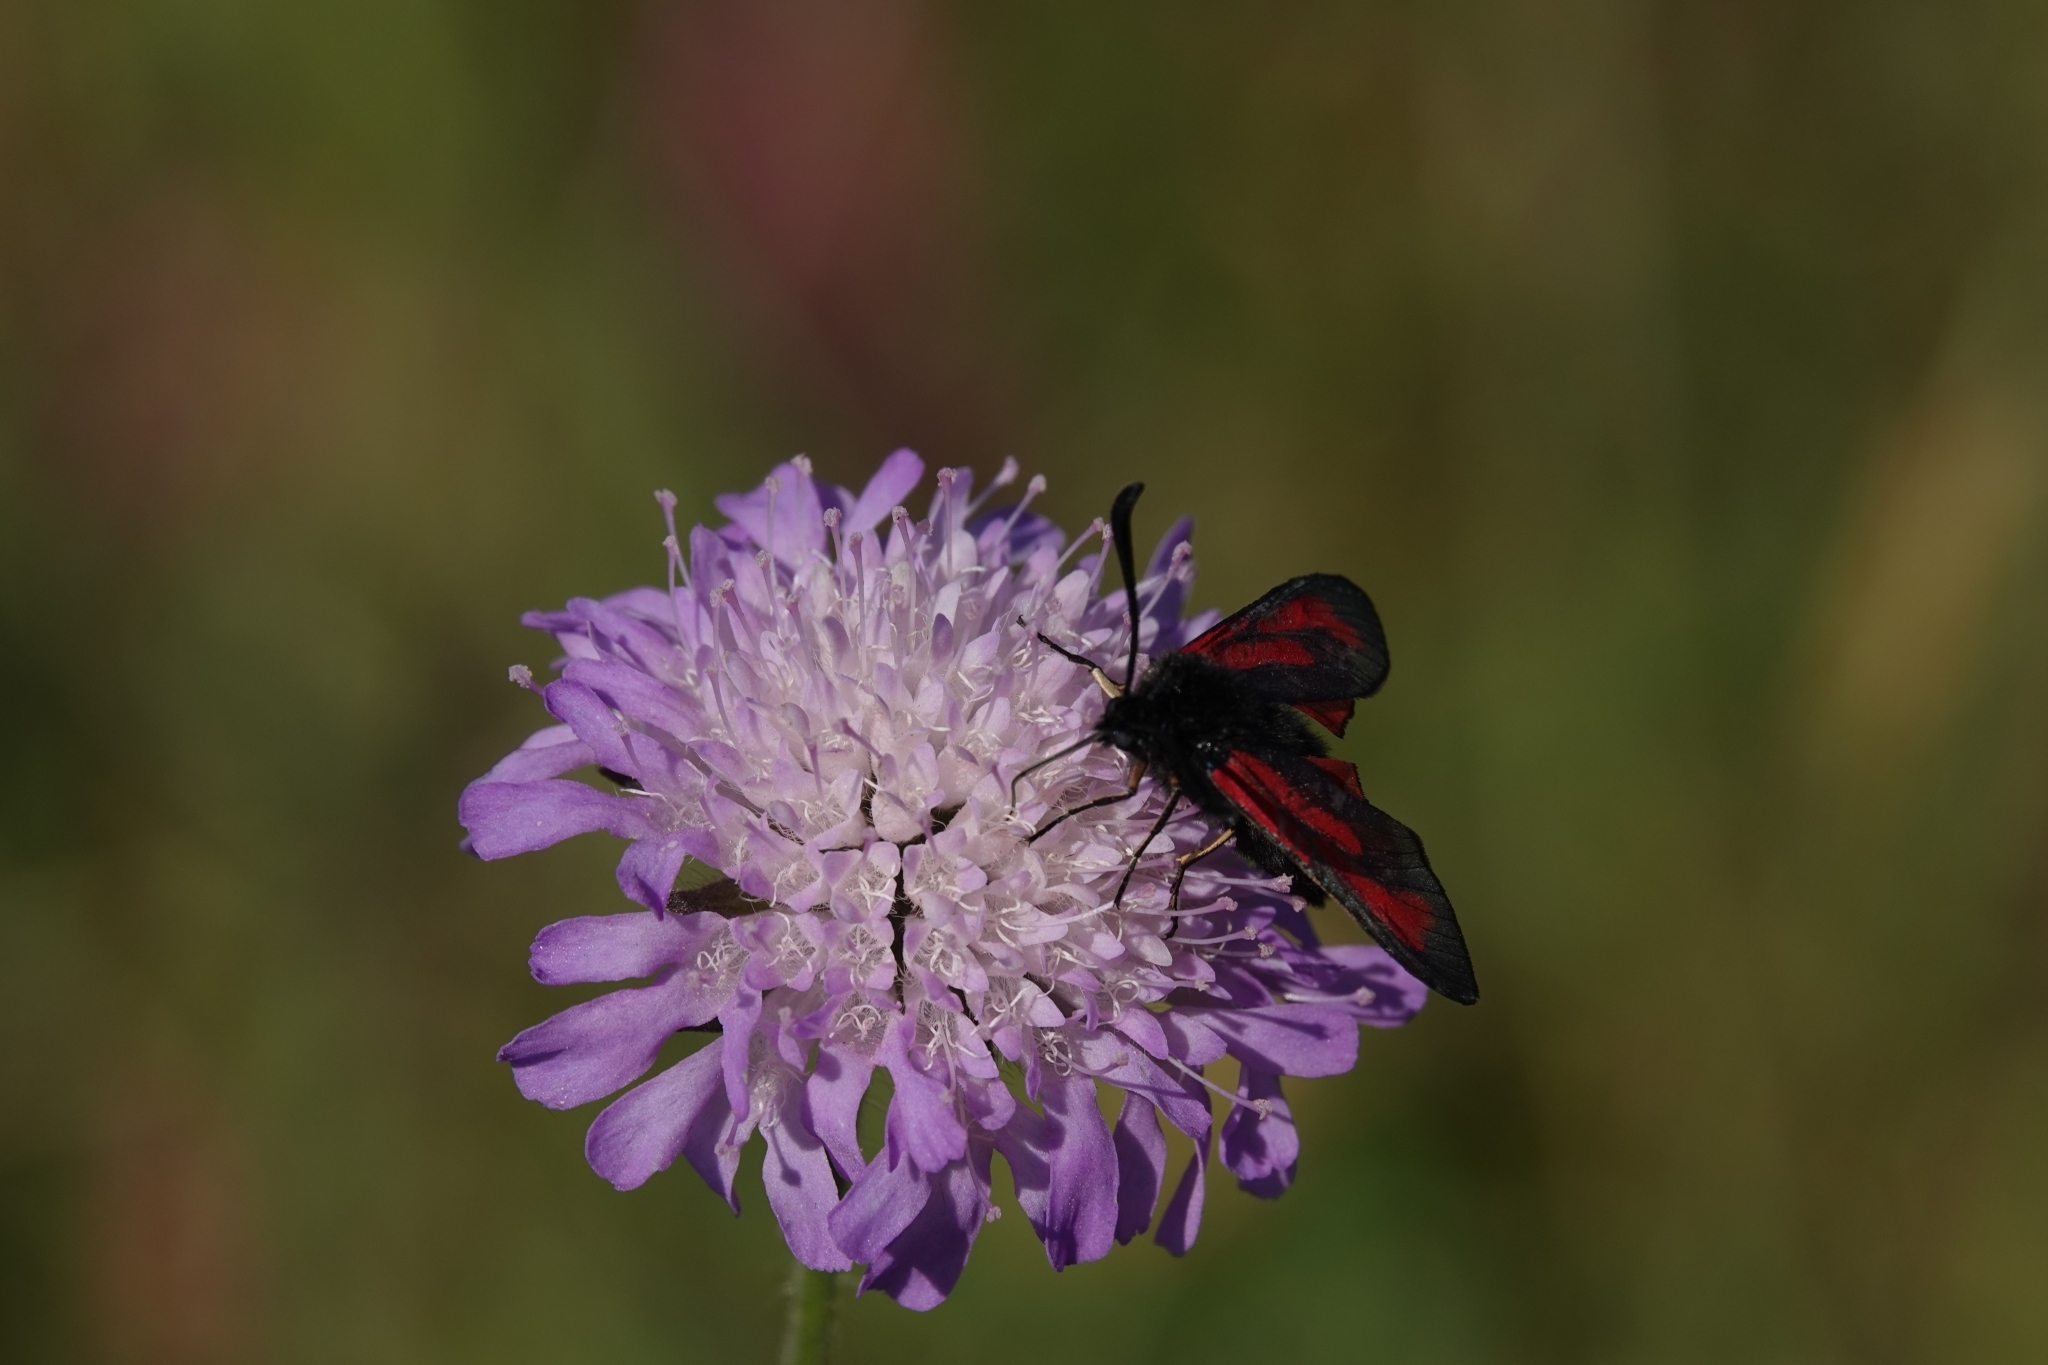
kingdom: Animalia
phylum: Arthropoda
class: Insecta
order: Lepidoptera
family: Zygaenidae
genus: Zygaena
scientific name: Zygaena minos
